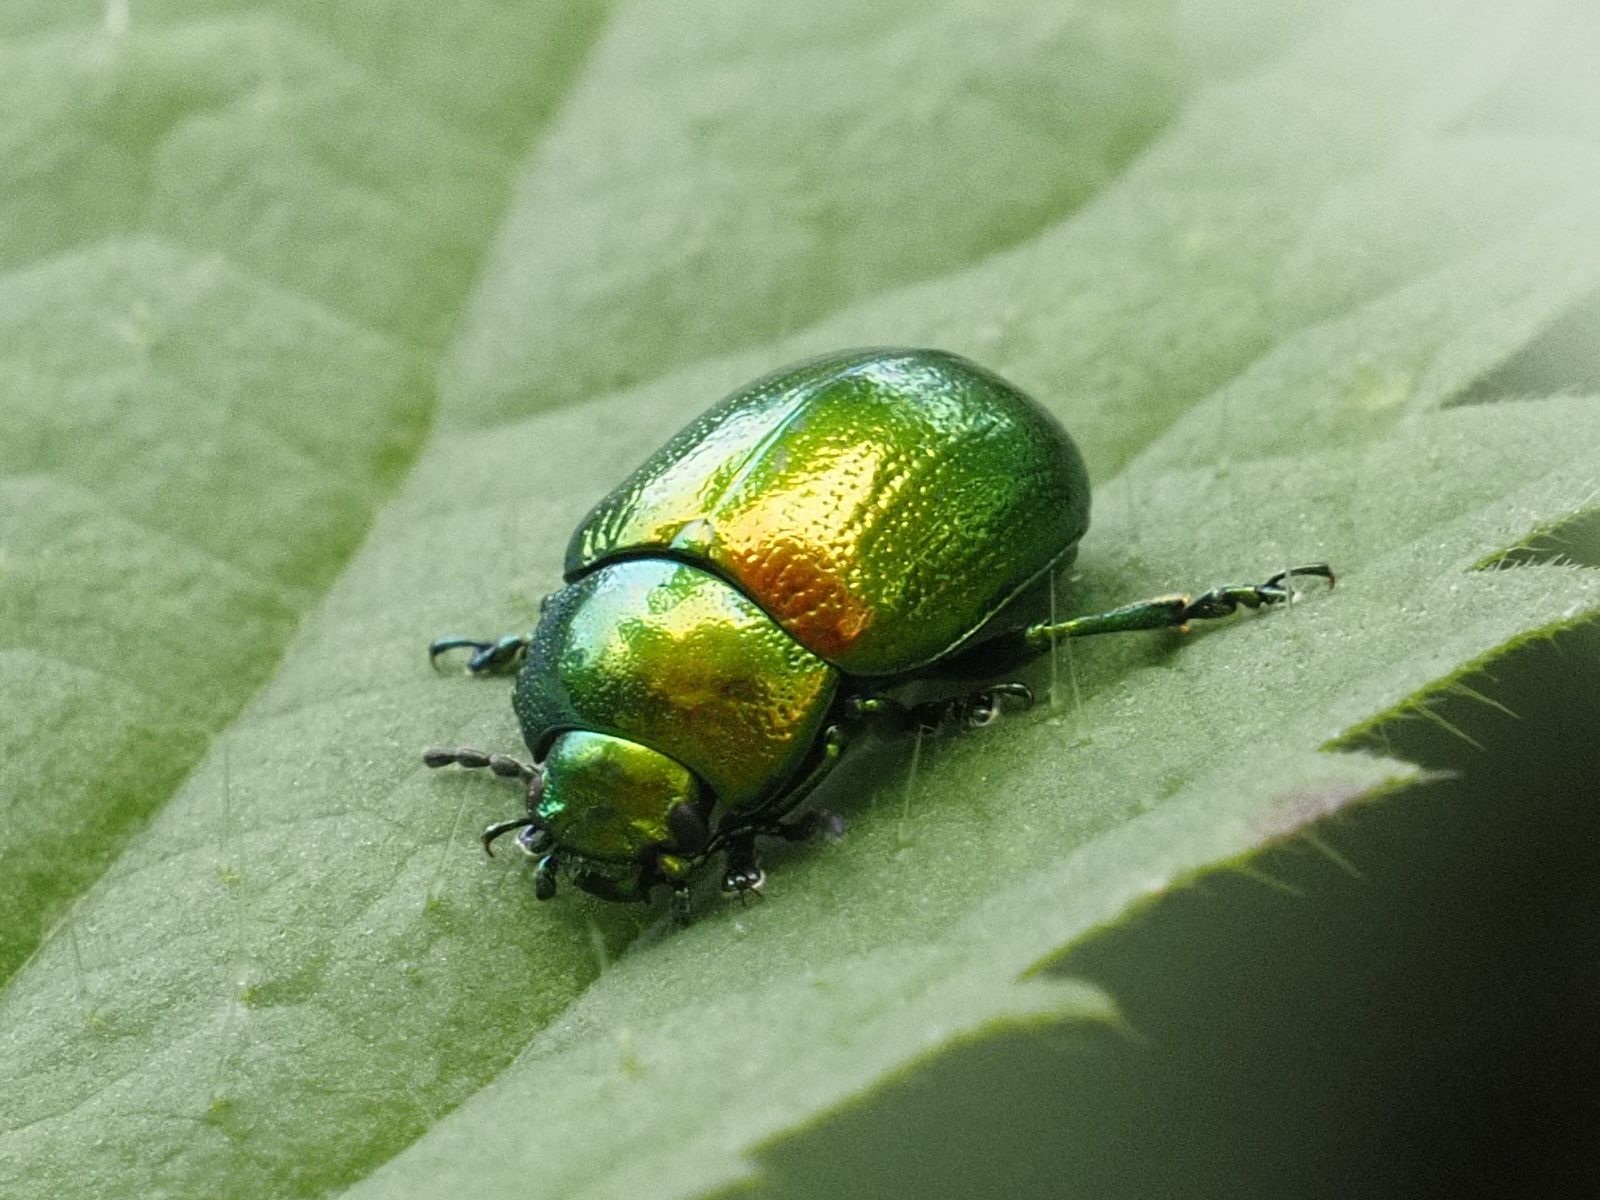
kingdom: Animalia
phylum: Arthropoda
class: Insecta
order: Coleoptera
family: Chrysomelidae
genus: Chrysolina
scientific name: Chrysolina herbacea
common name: Mint leaf beatle
